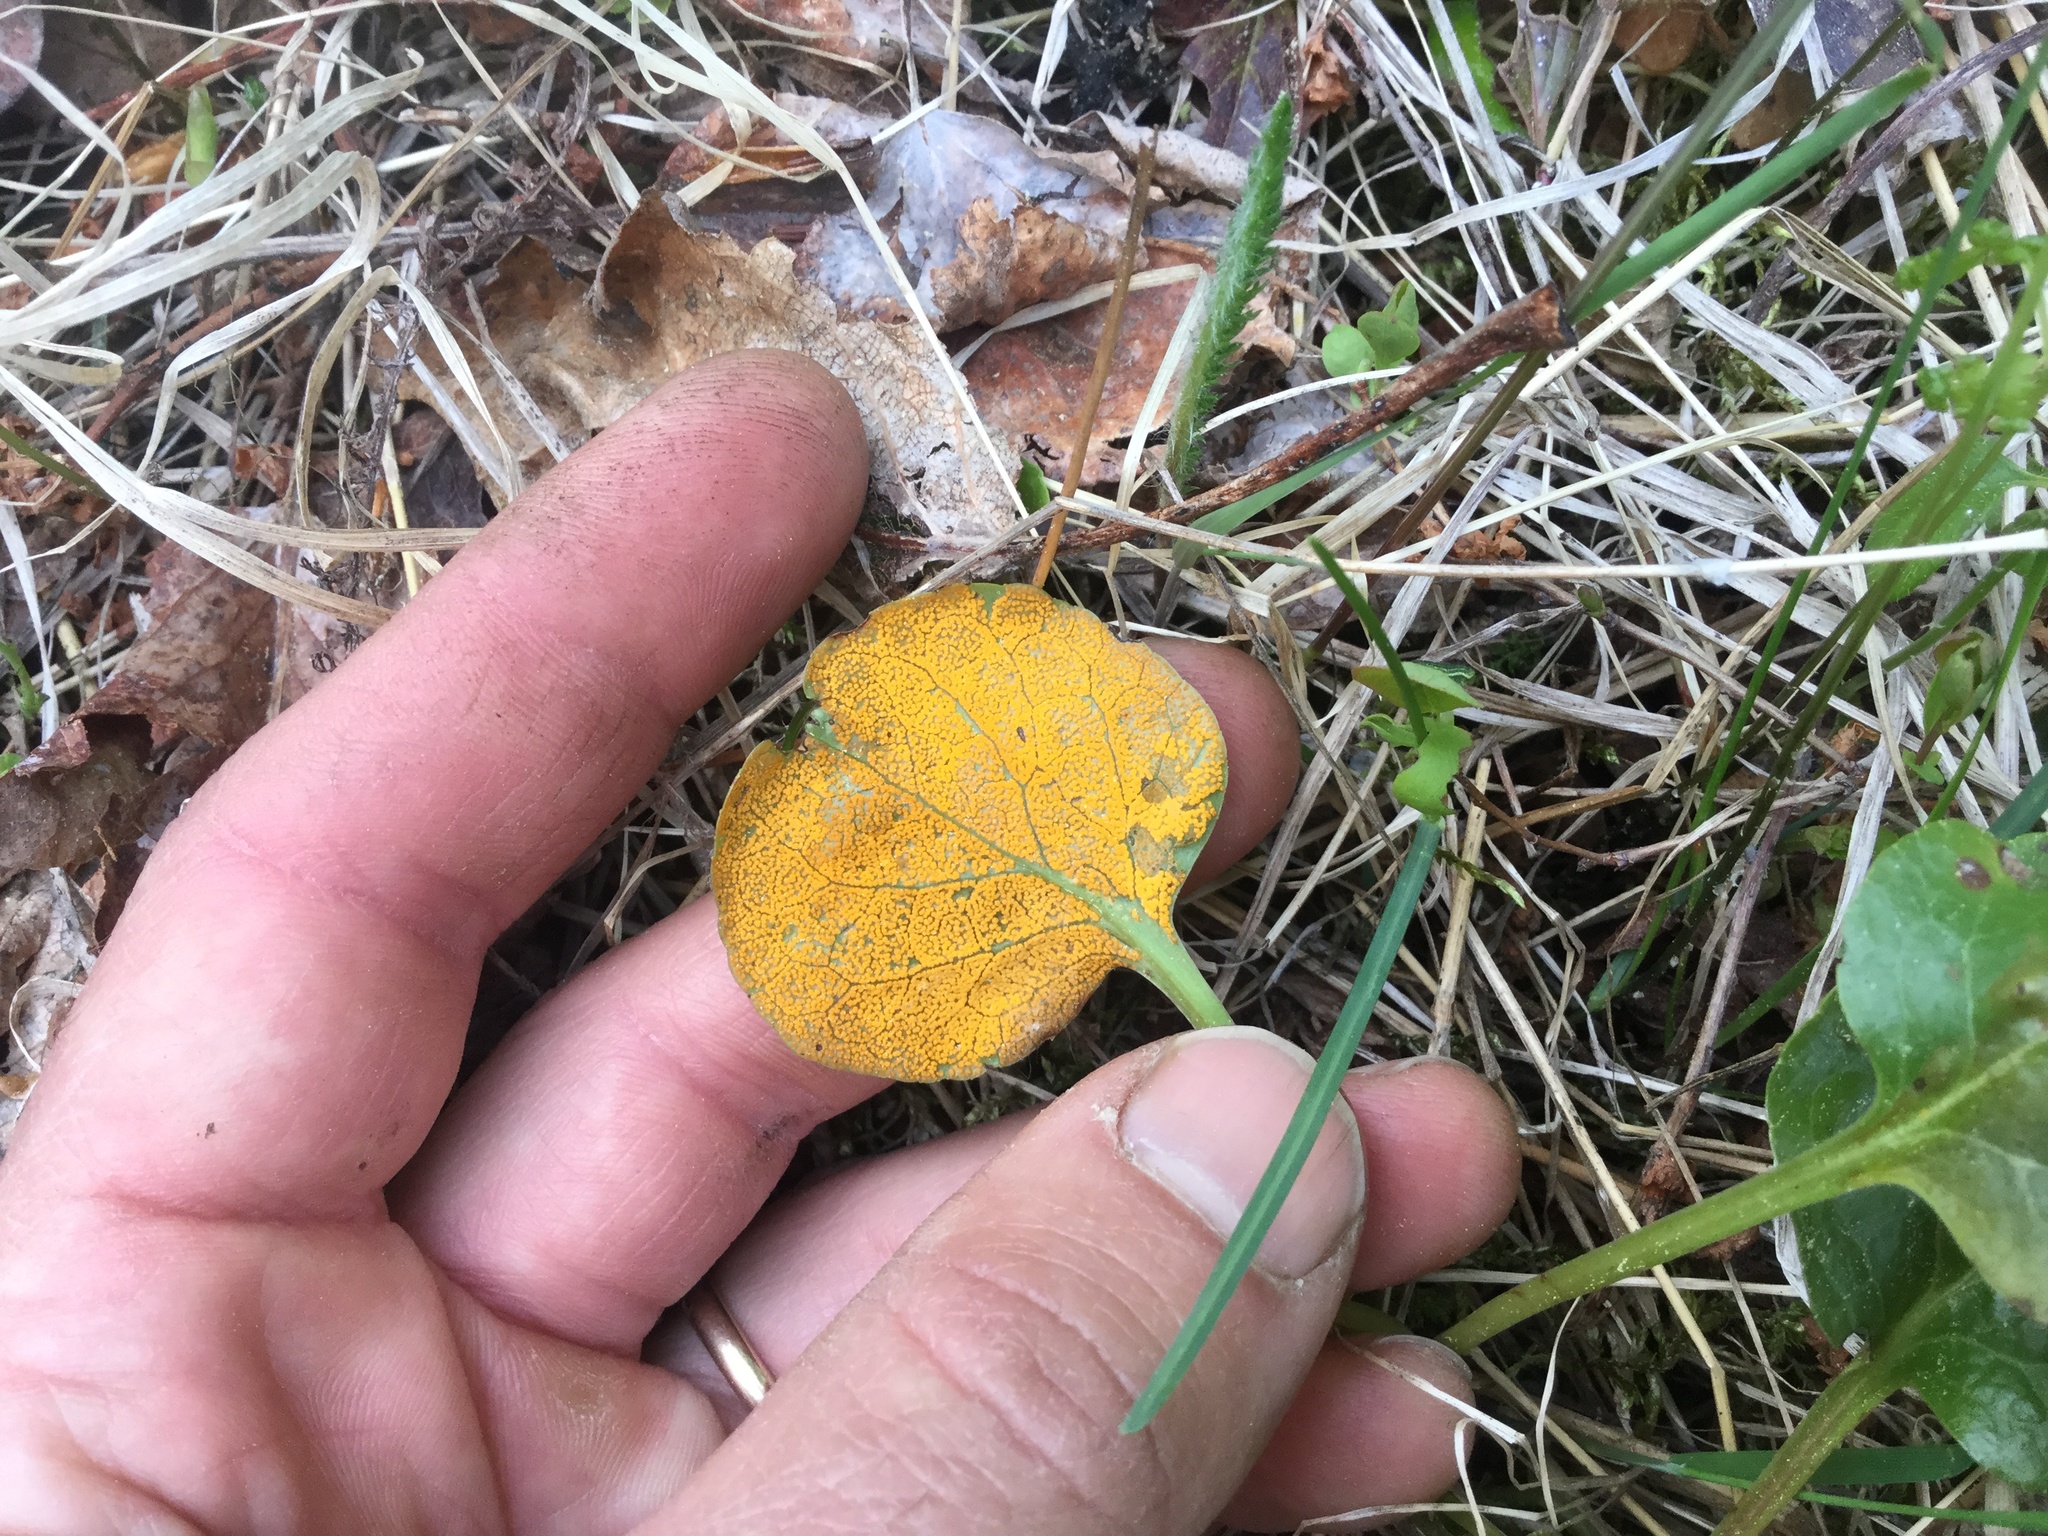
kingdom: Fungi
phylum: Basidiomycota
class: Pucciniomycetes
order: Pucciniales
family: Coleosporiaceae
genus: Rossmanomyces
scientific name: Rossmanomyces pyrolae
